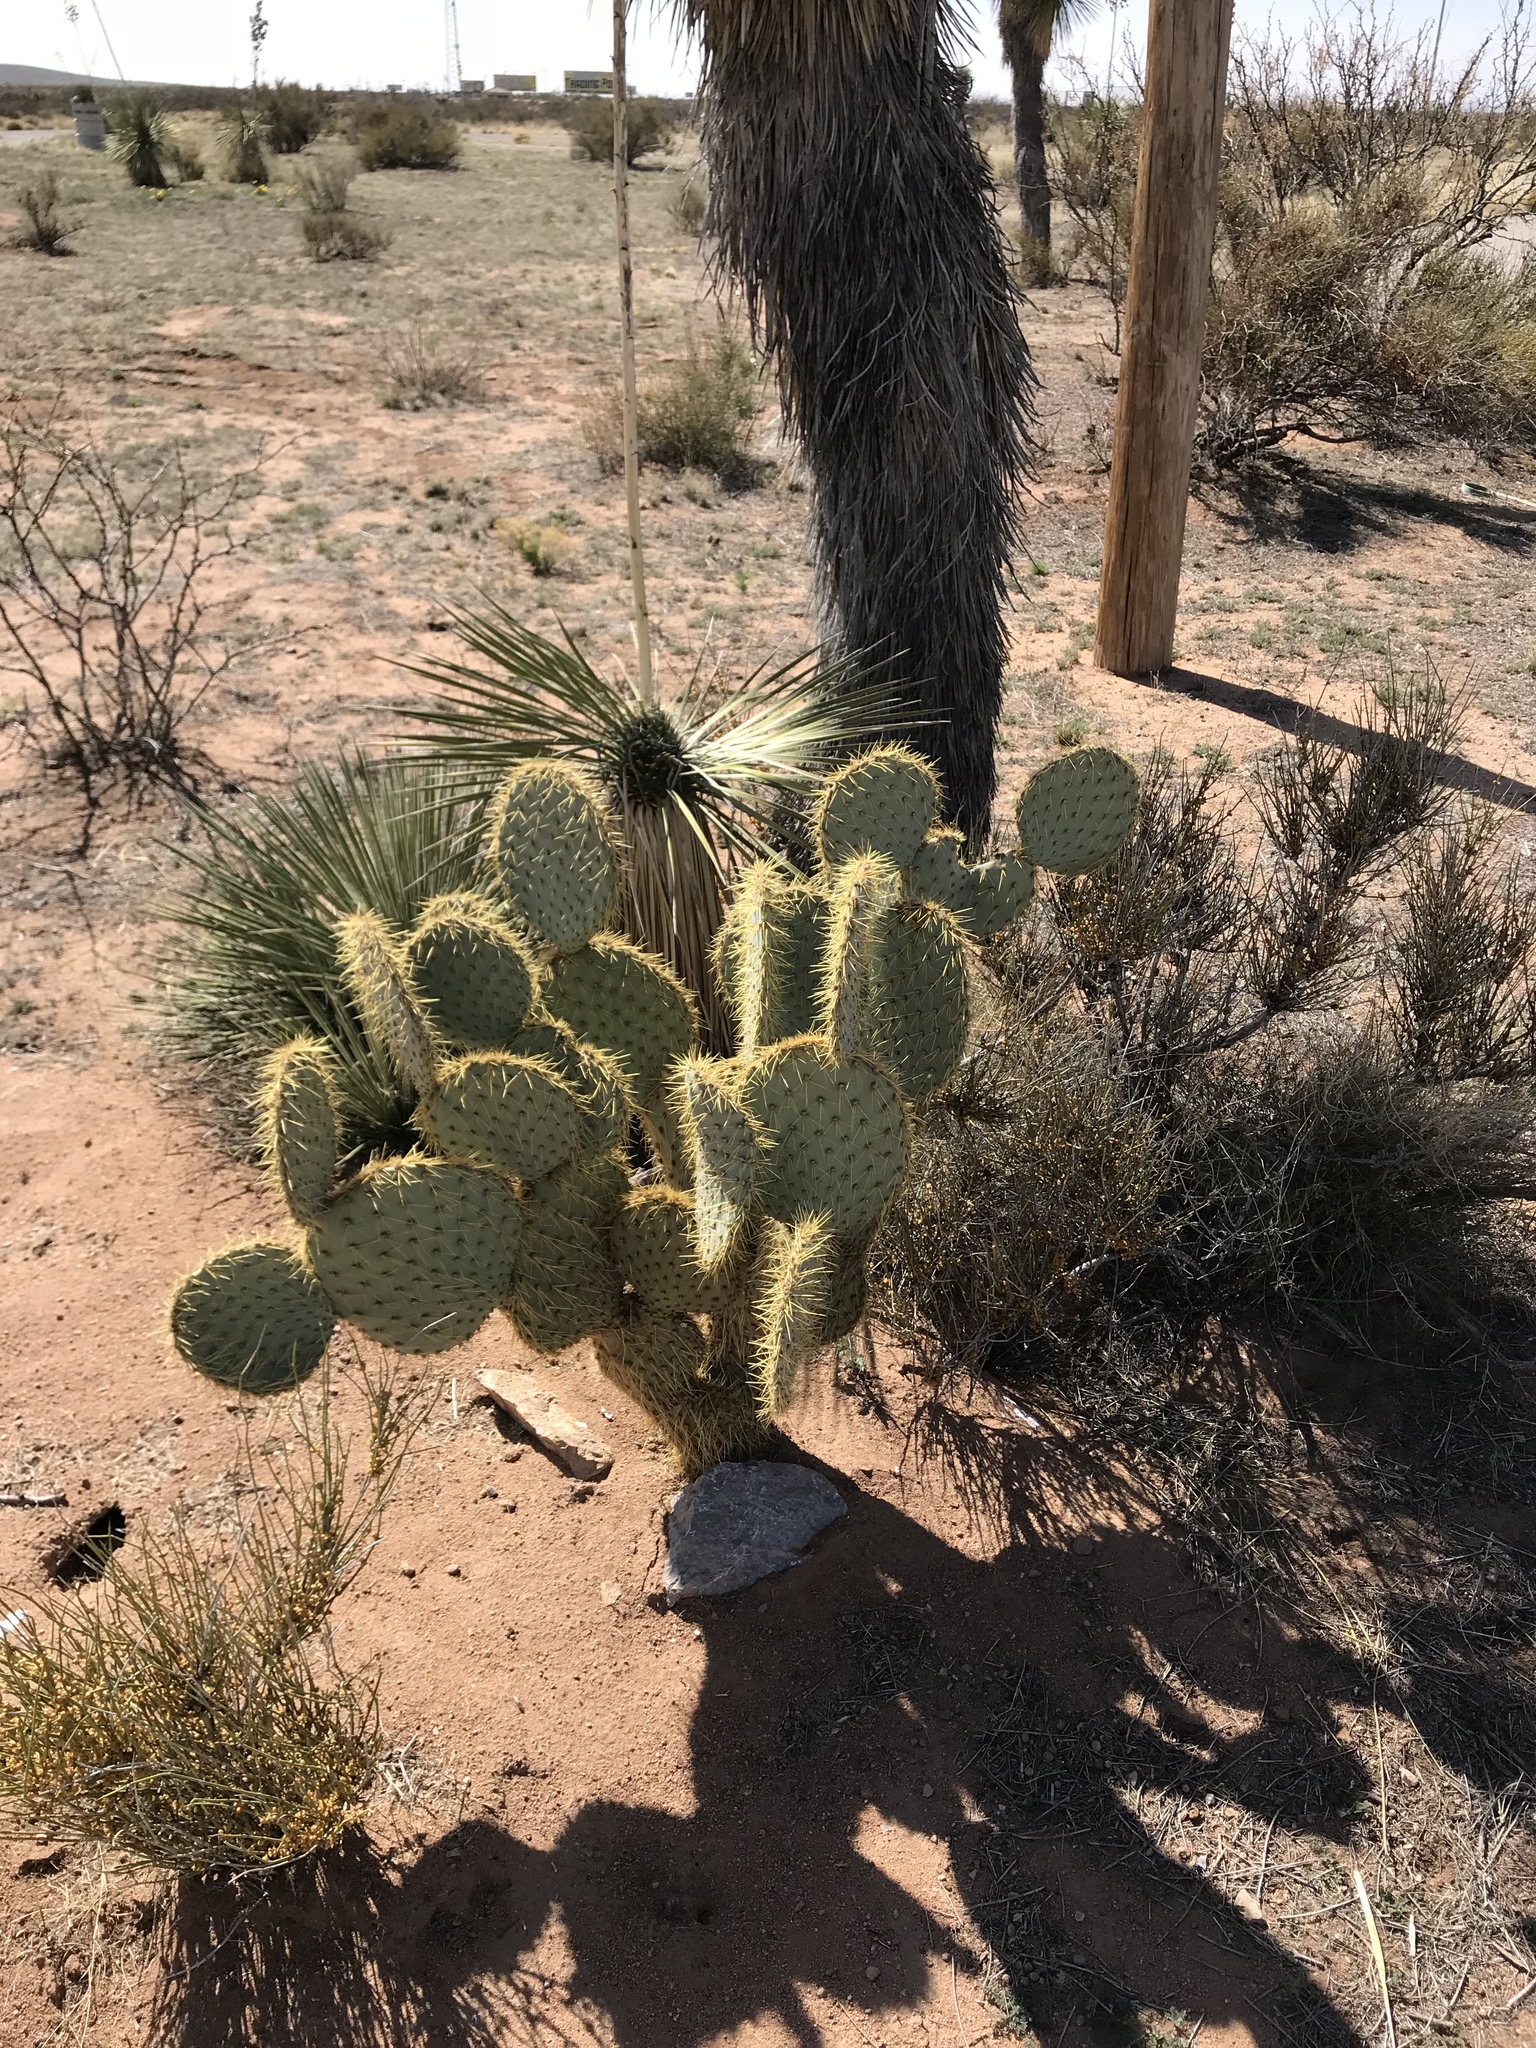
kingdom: Plantae
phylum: Tracheophyta
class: Magnoliopsida
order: Caryophyllales
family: Cactaceae
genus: Opuntia
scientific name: Opuntia chlorotica
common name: Dollar-joint prickly-pear
